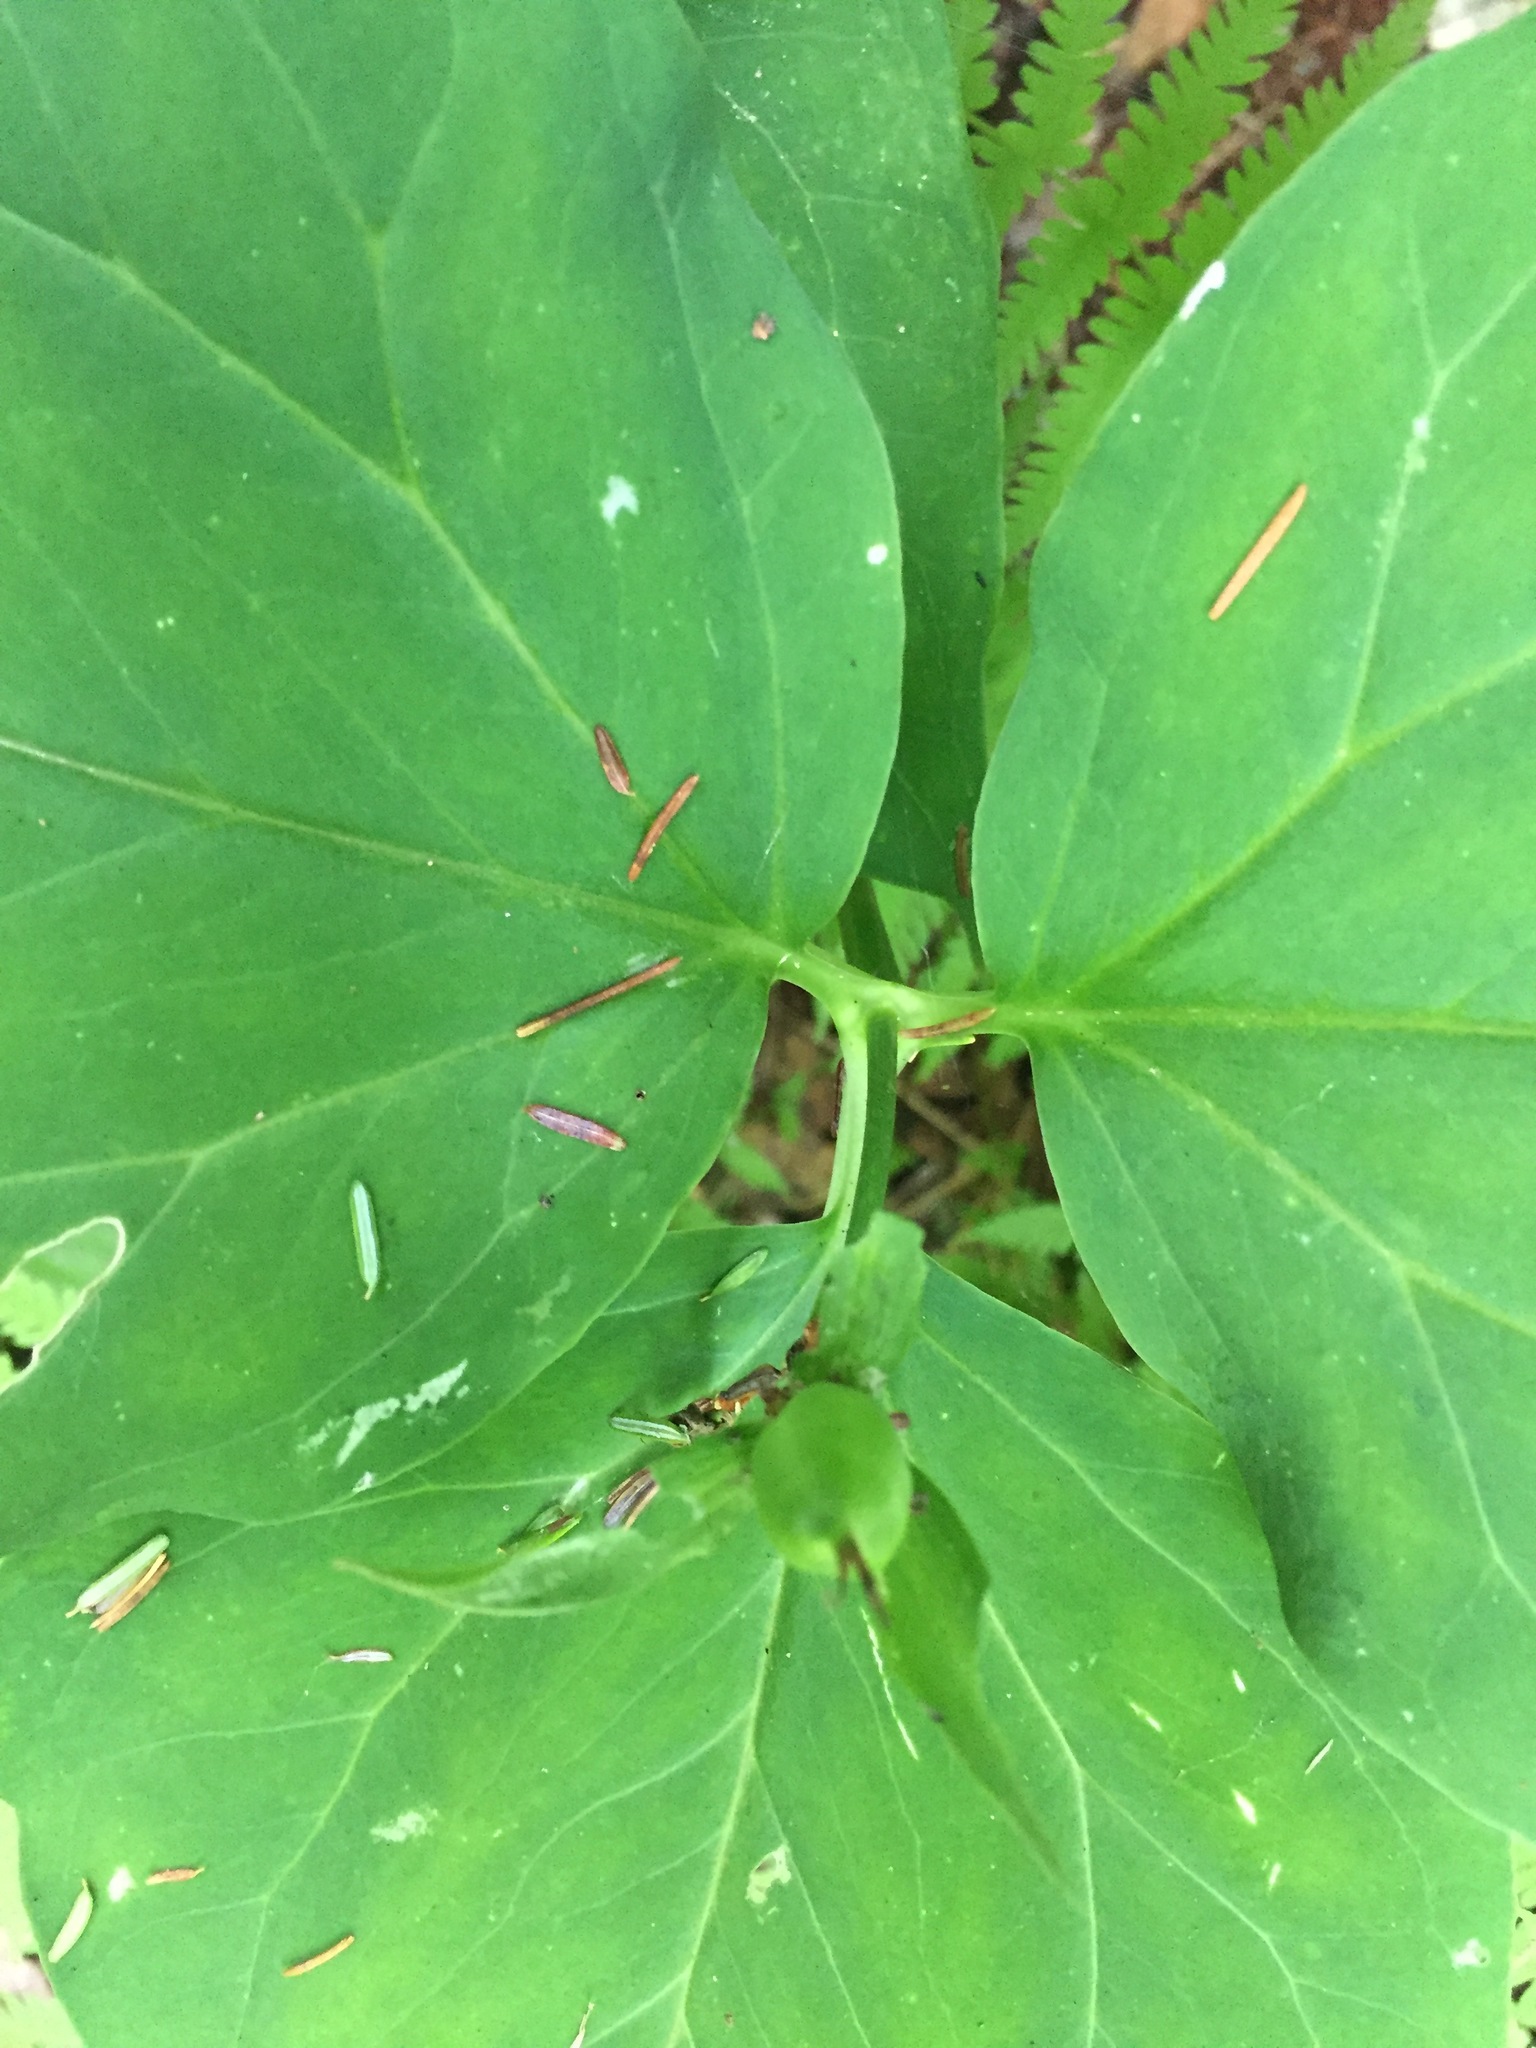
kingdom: Plantae
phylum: Tracheophyta
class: Liliopsida
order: Liliales
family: Melanthiaceae
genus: Trillium
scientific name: Trillium undulatum
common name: Paint trillium
